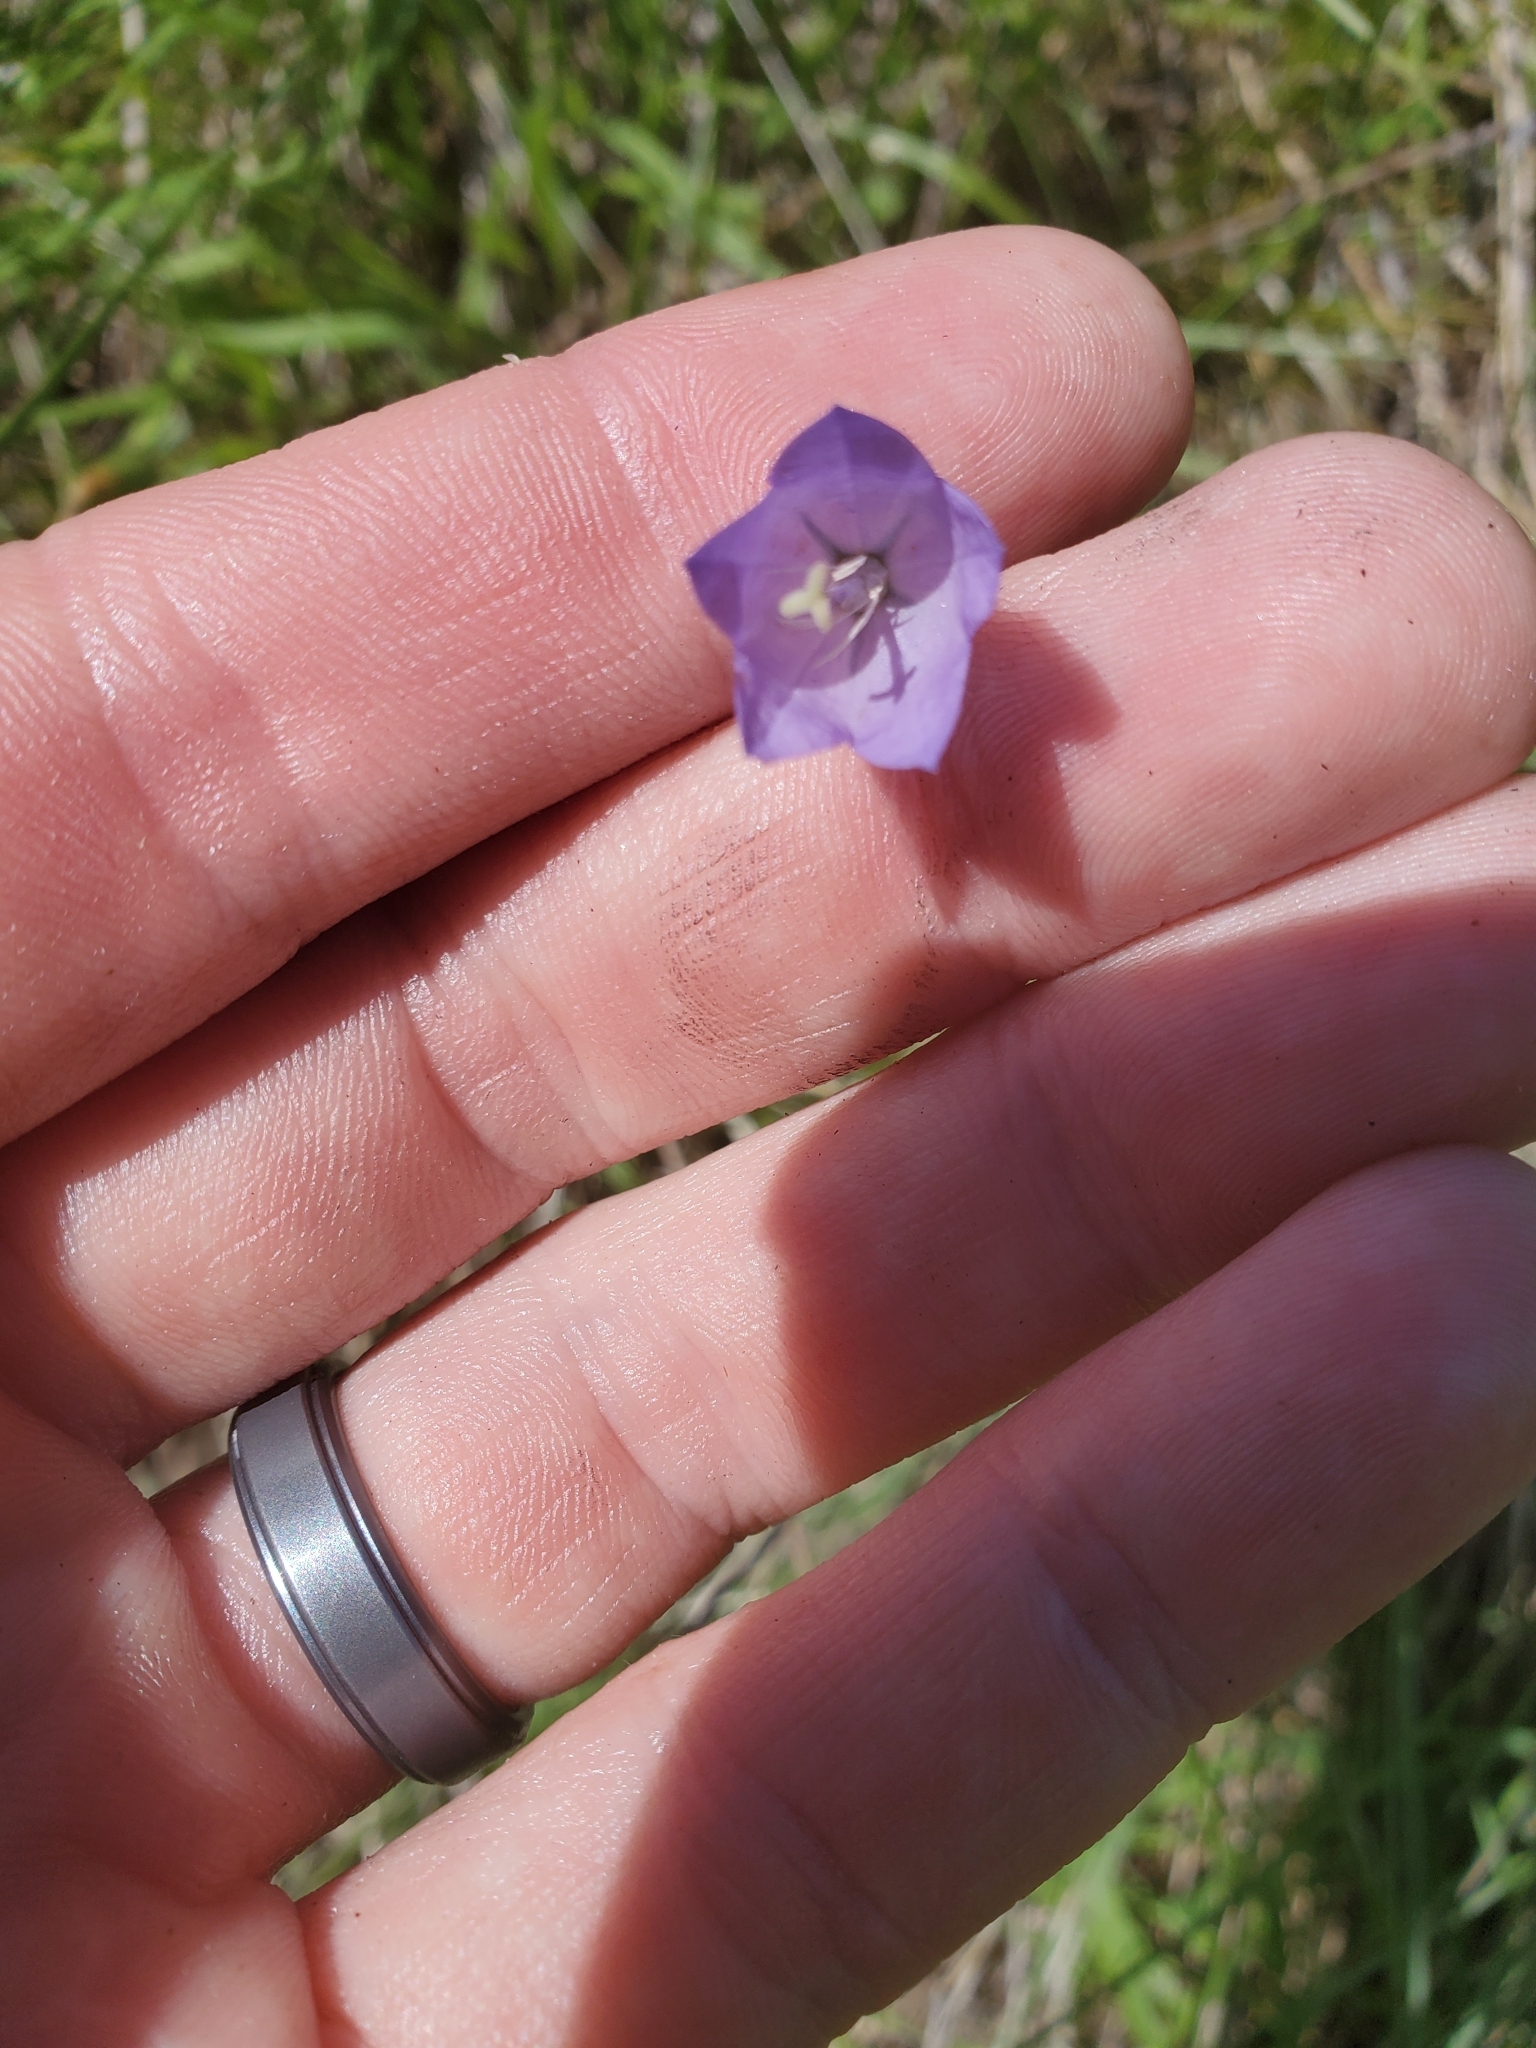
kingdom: Plantae
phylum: Tracheophyta
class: Magnoliopsida
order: Asterales
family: Campanulaceae
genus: Campanula
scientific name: Campanula intercedens
